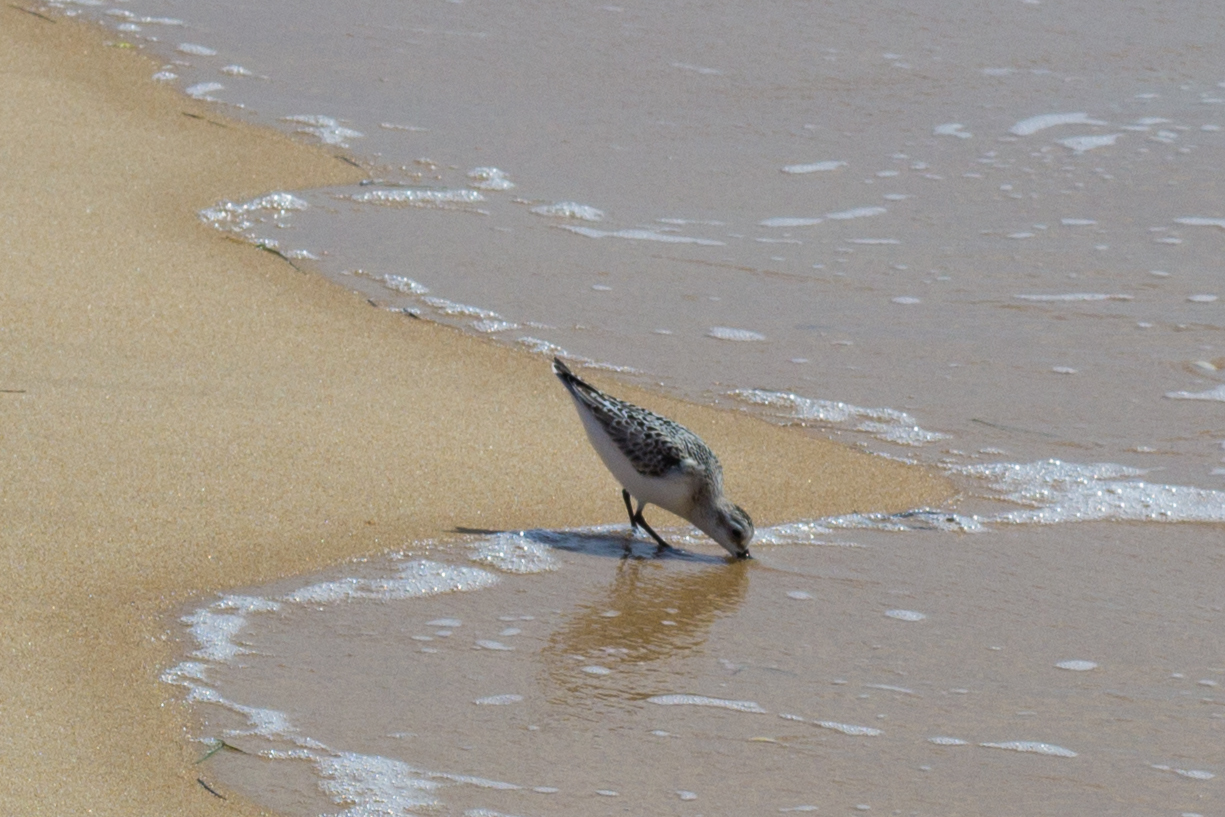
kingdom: Animalia
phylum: Chordata
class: Aves
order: Charadriiformes
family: Scolopacidae
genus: Calidris
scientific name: Calidris alba
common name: Sanderling
